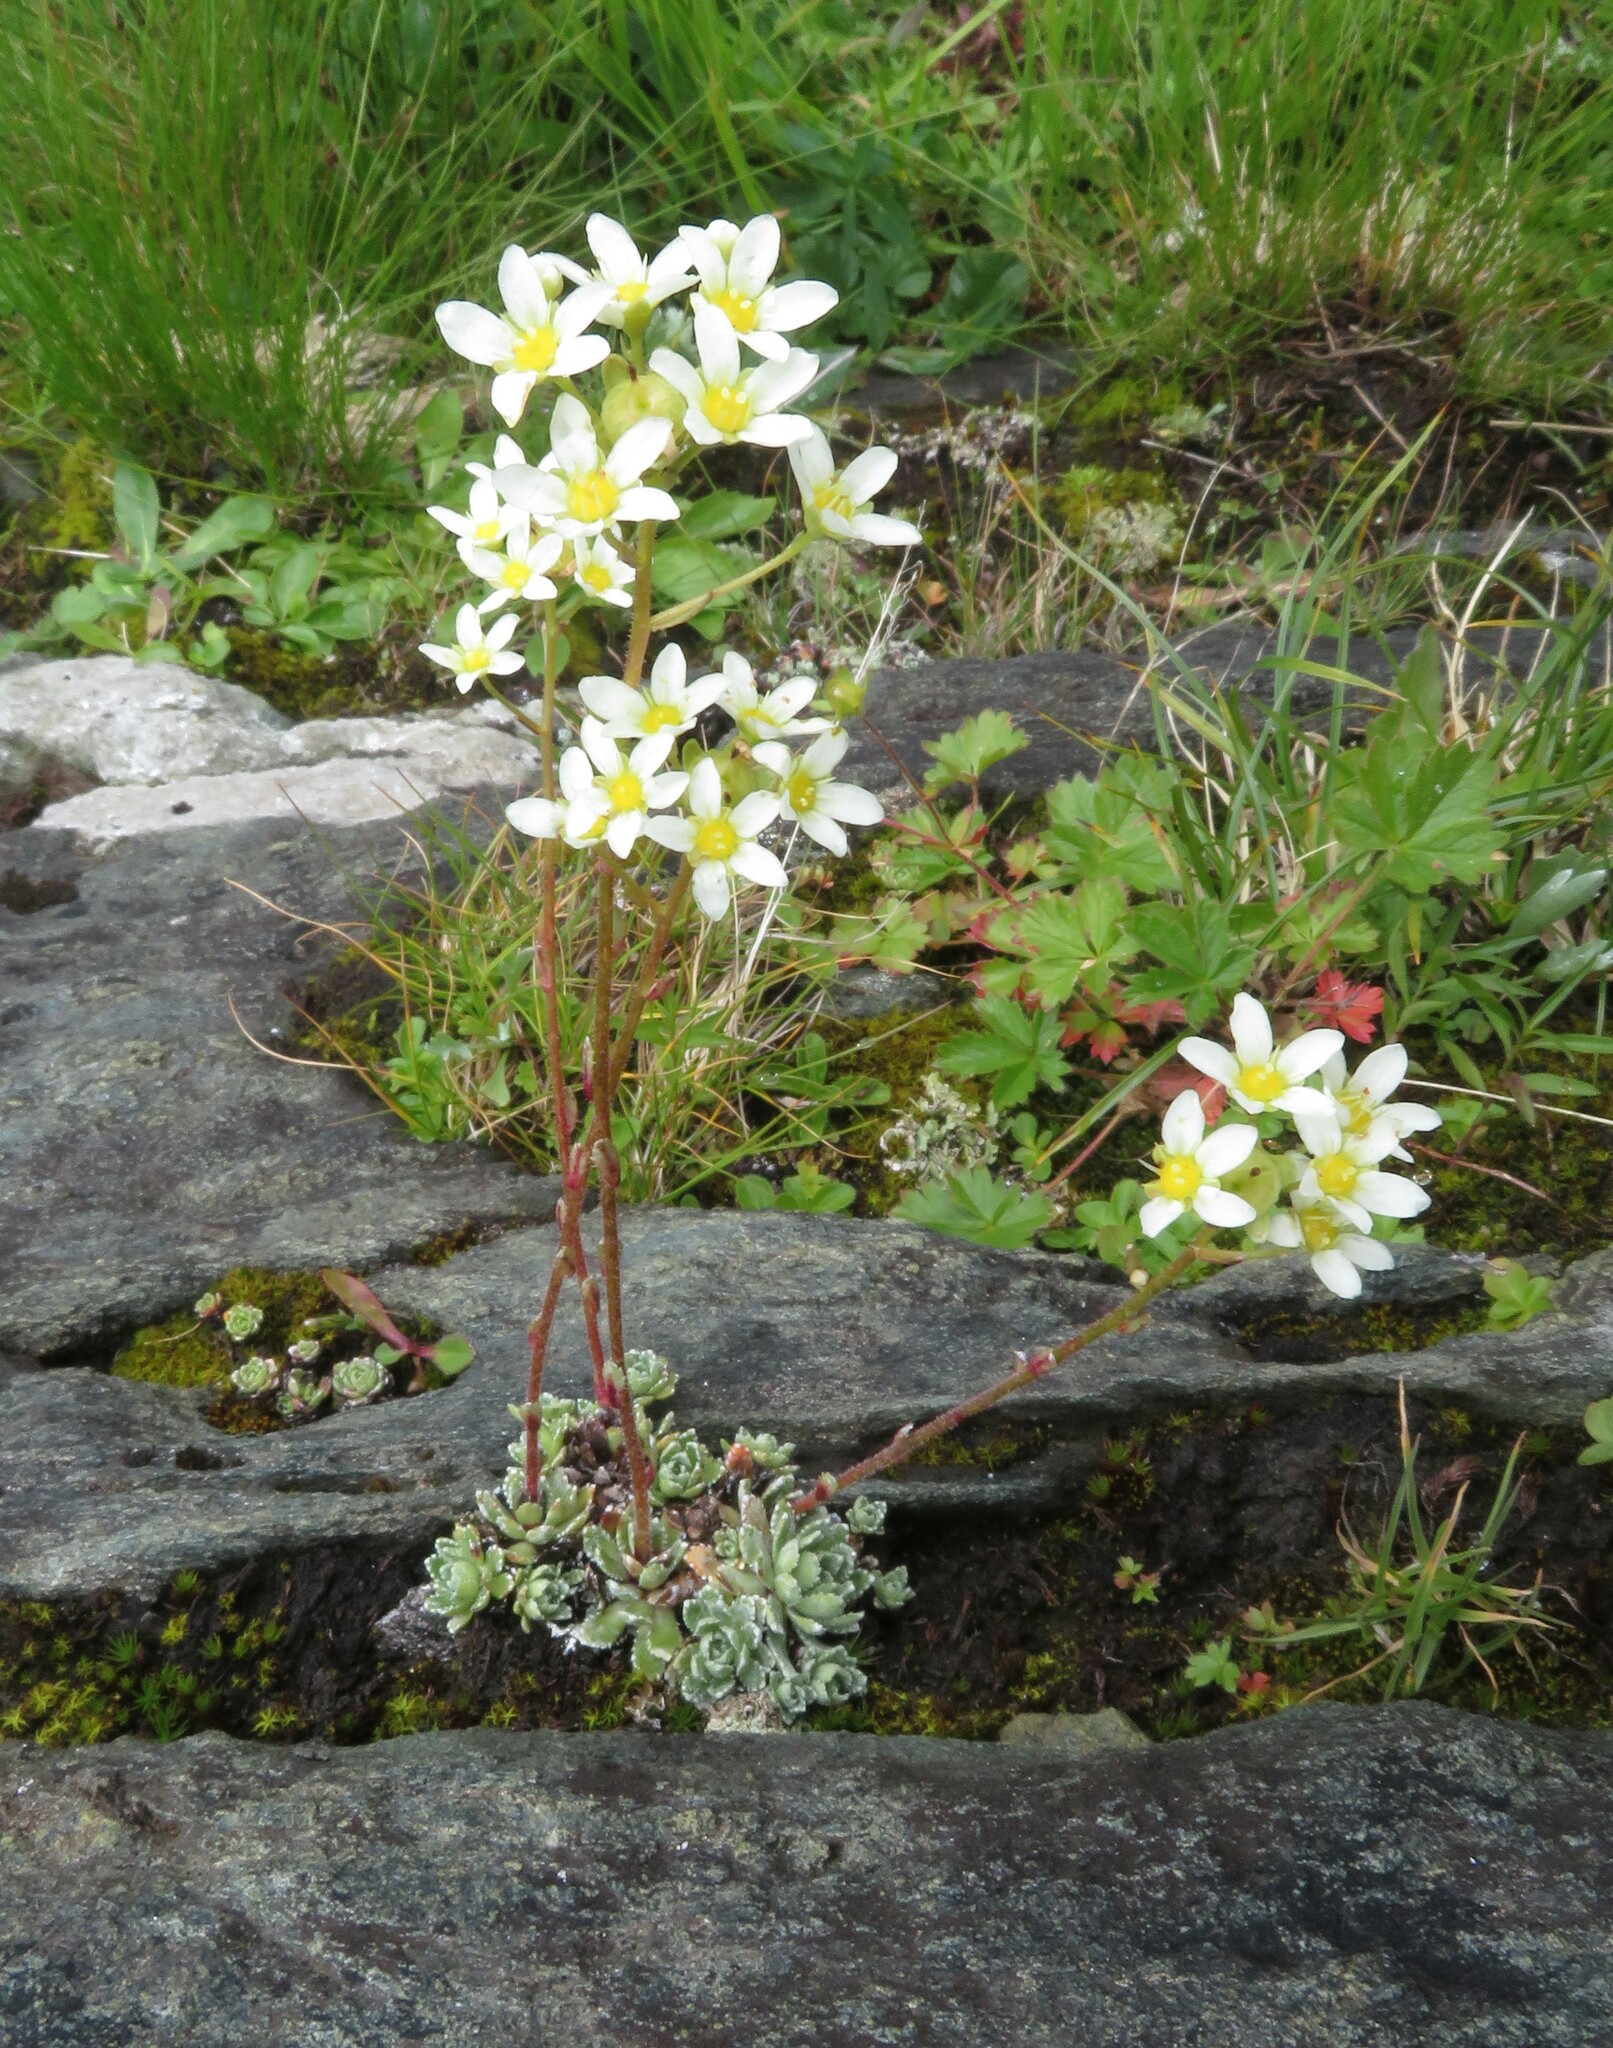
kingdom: Plantae
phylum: Tracheophyta
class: Magnoliopsida
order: Saxifragales
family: Saxifragaceae
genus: Saxifraga
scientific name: Saxifraga paniculata
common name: Livelong saxifrage
